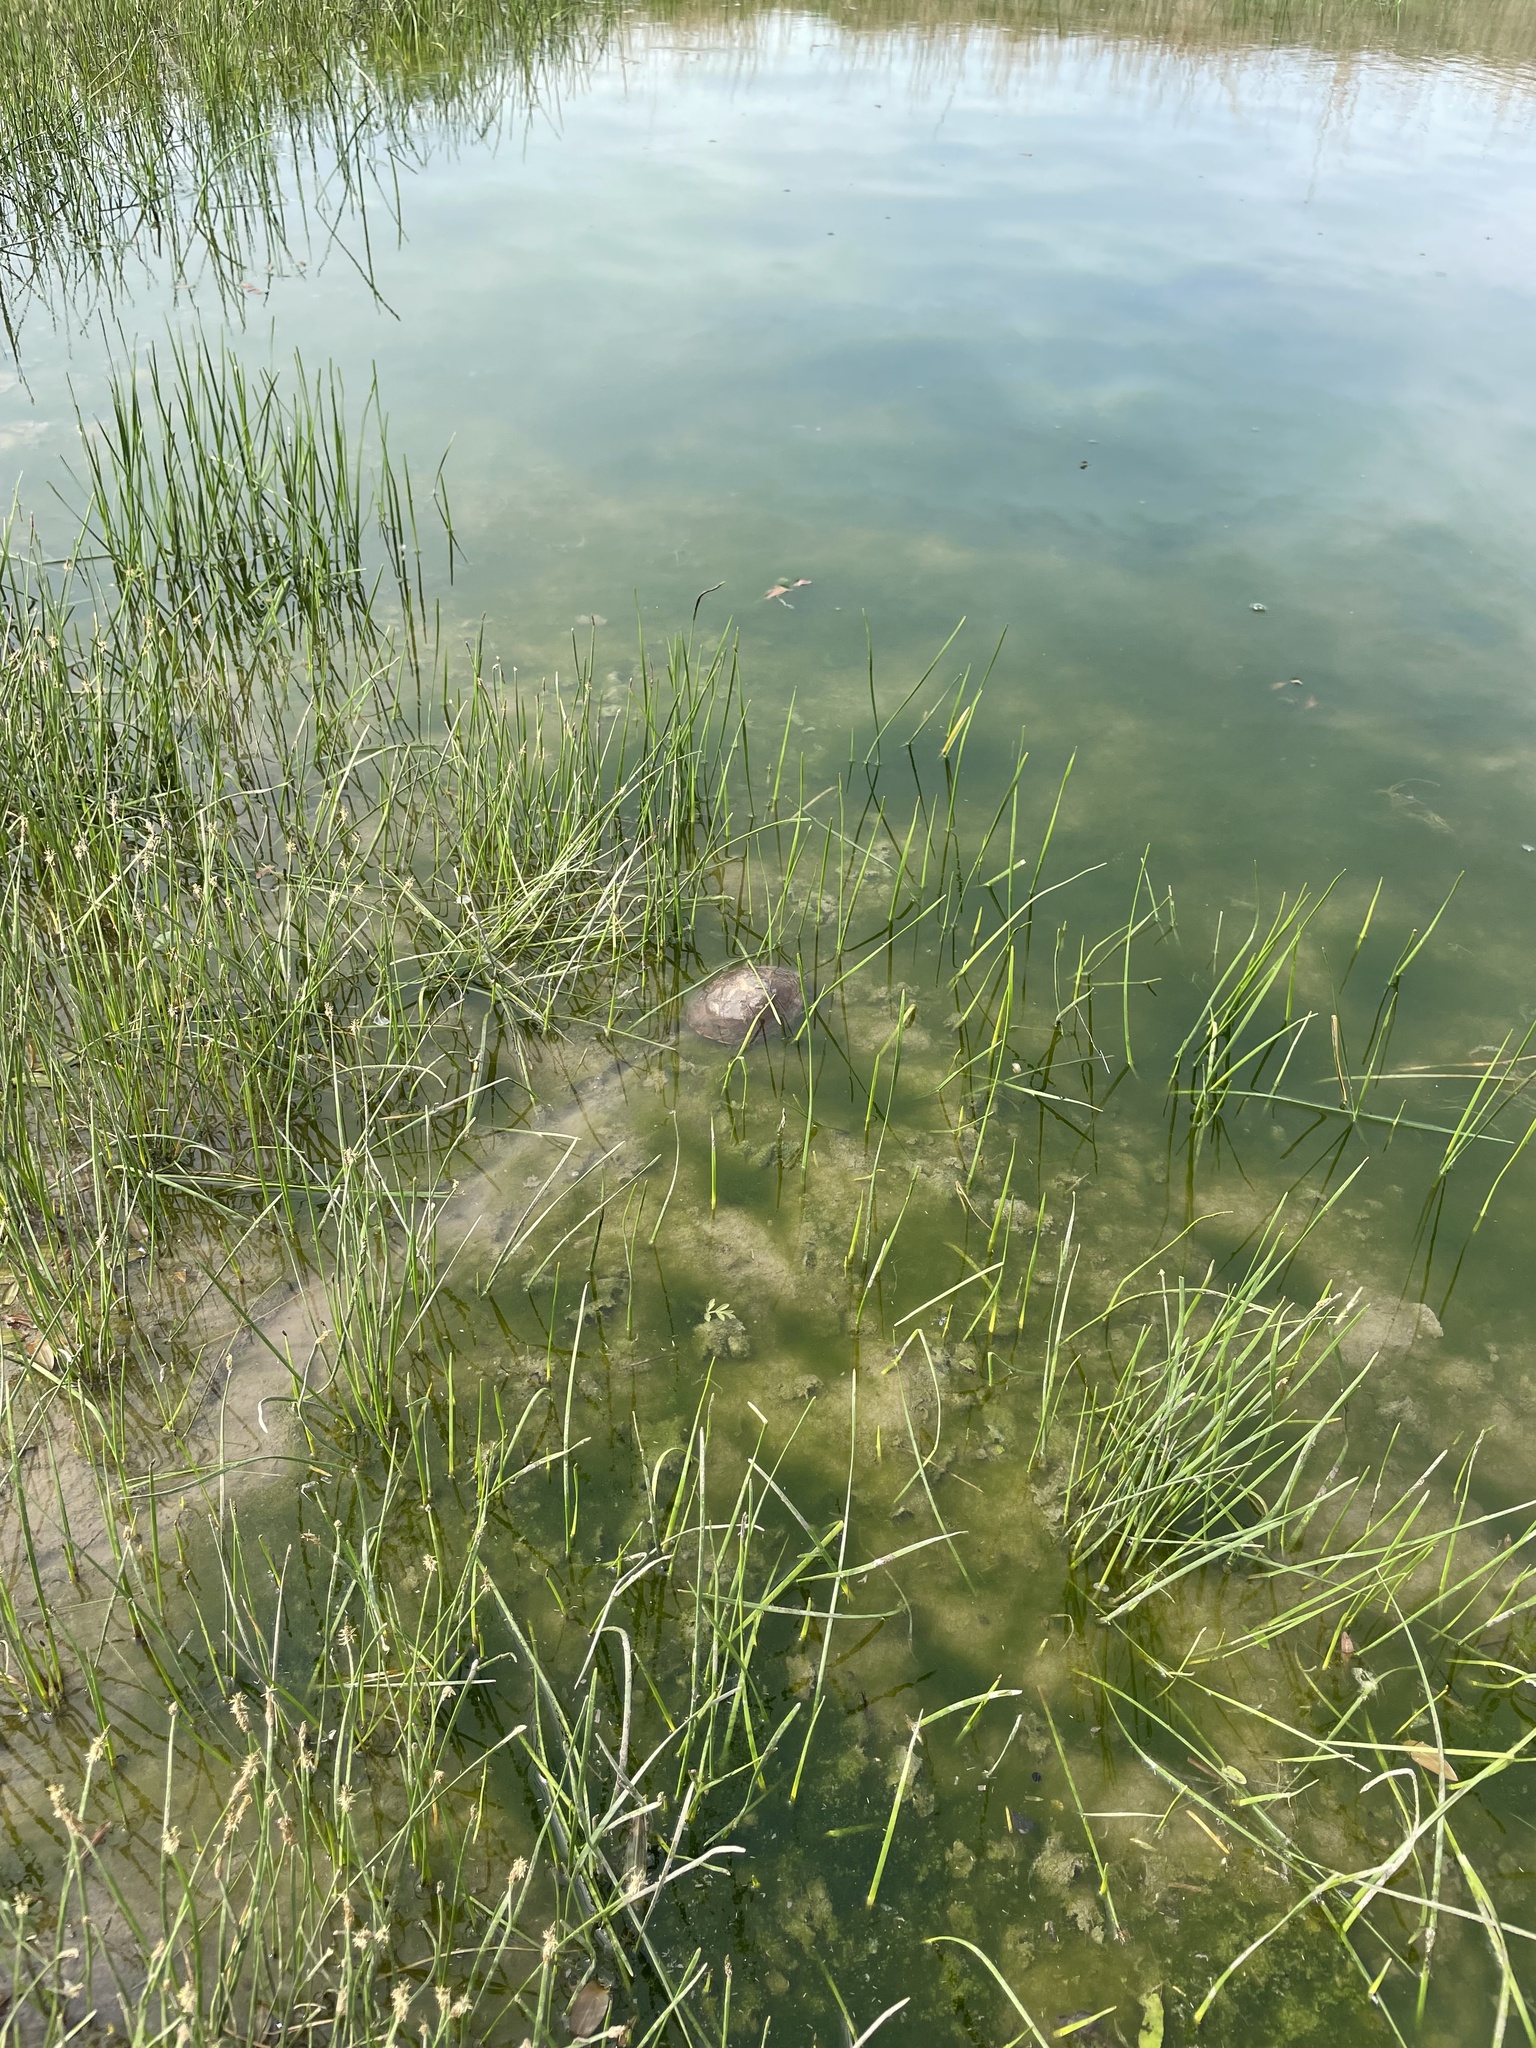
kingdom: Animalia
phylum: Chordata
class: Testudines
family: Kinosternidae
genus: Kinosternon
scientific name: Kinosternon flavescens
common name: Yellow mud turtle
